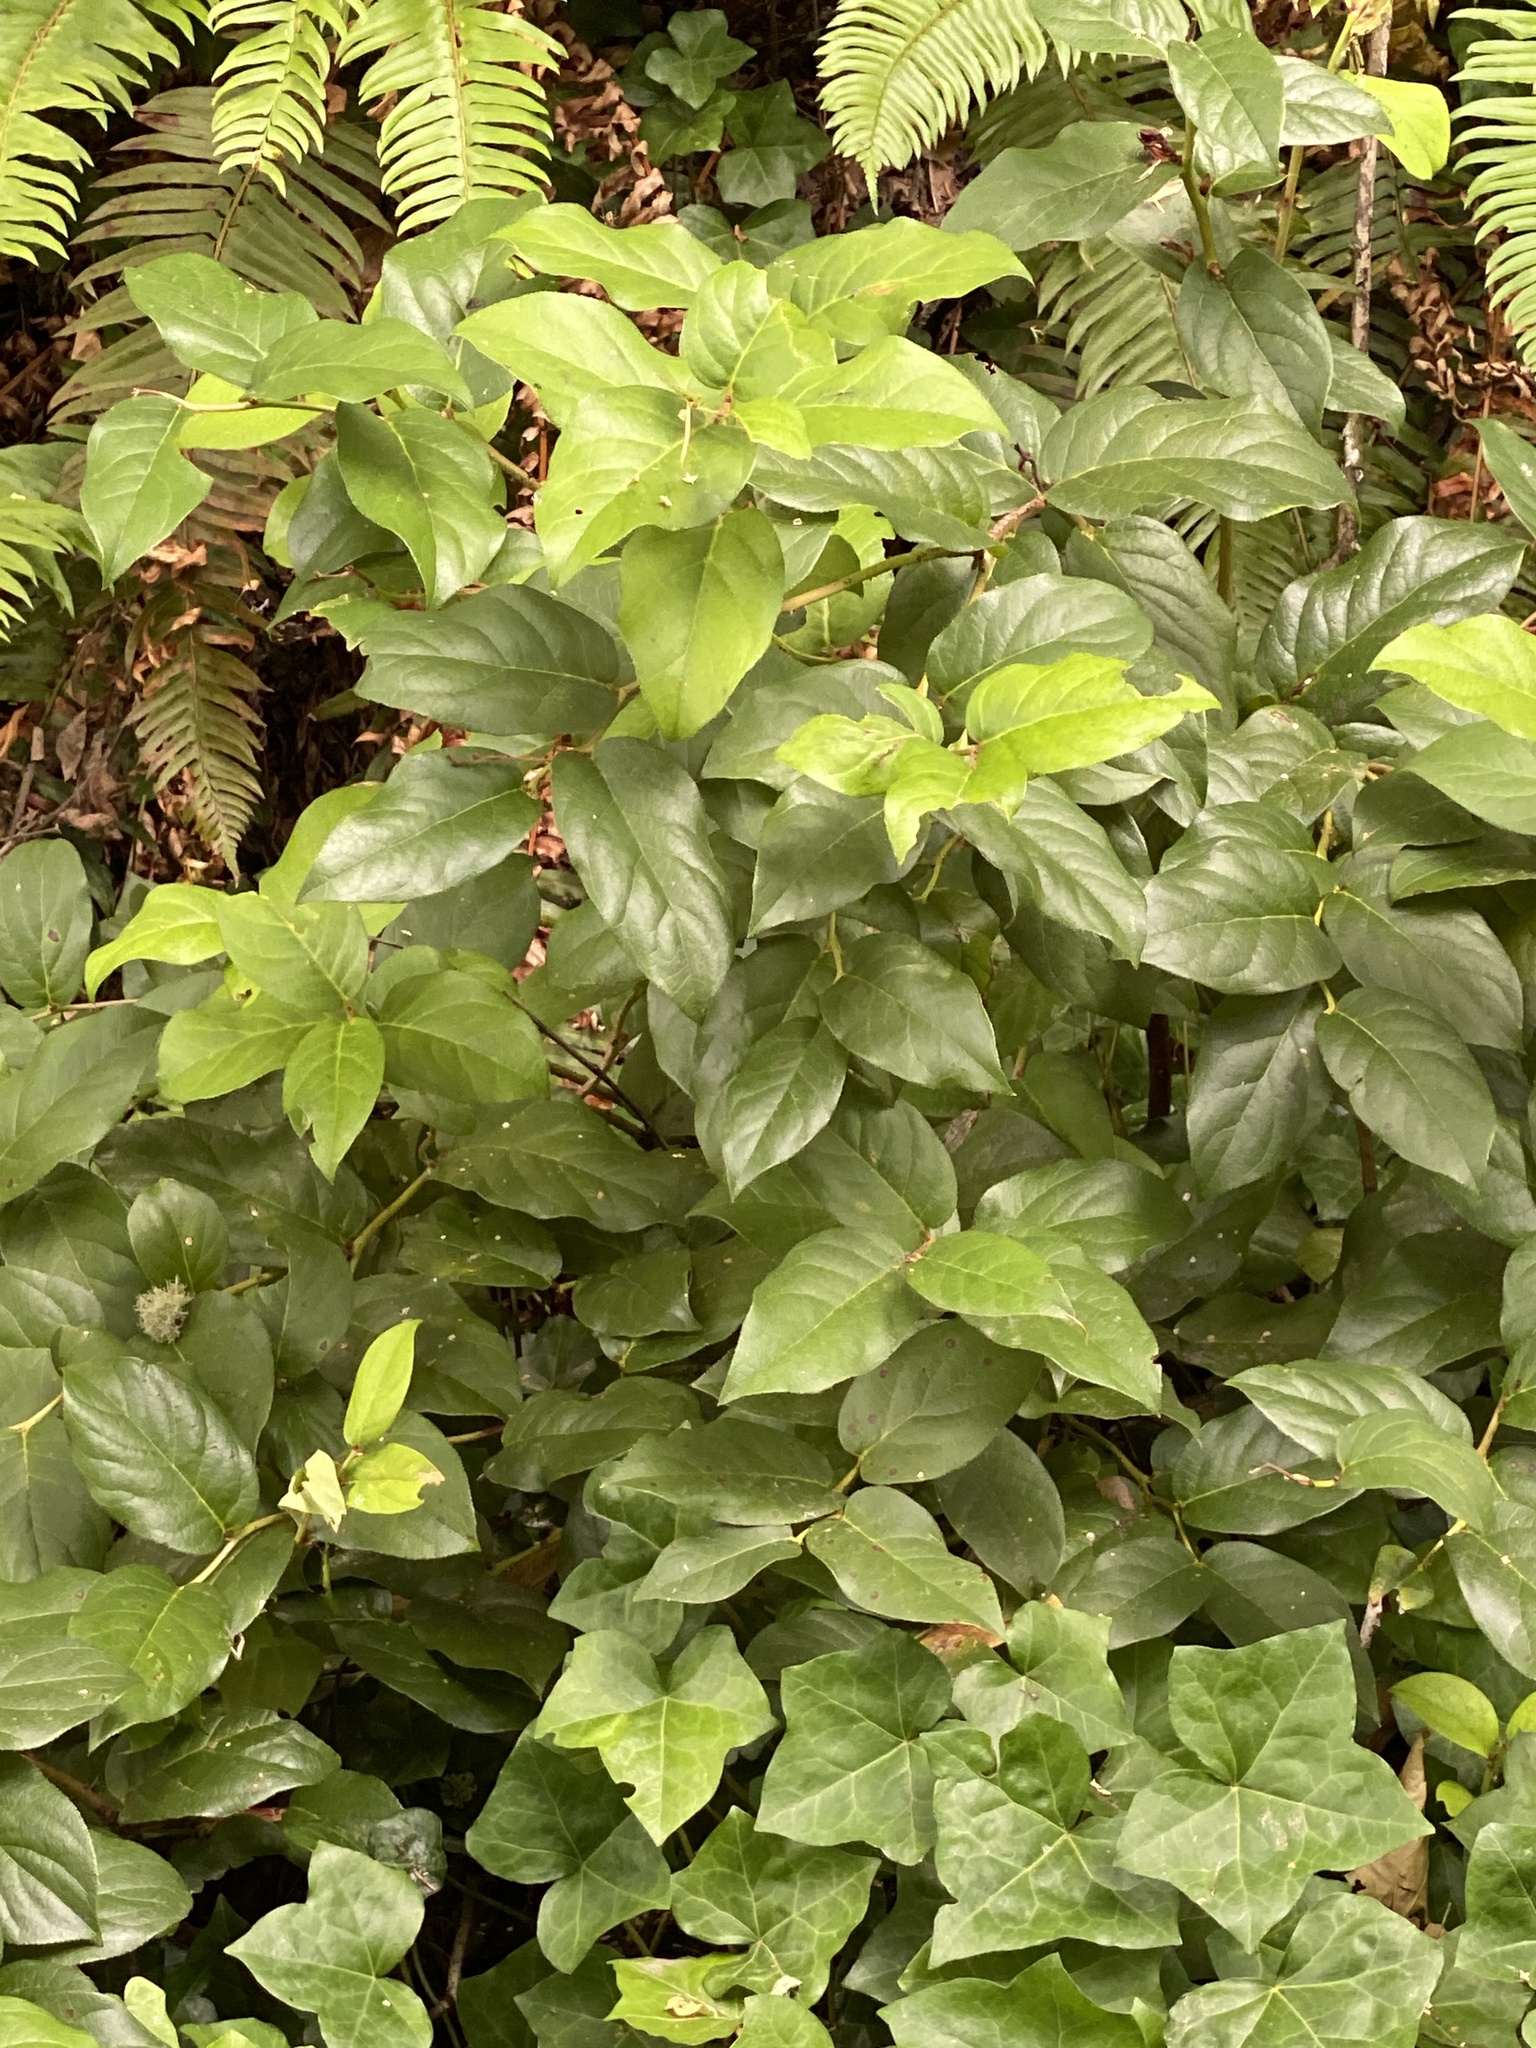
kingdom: Plantae
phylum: Tracheophyta
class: Magnoliopsida
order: Ericales
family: Ericaceae
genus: Gaultheria
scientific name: Gaultheria shallon
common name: Shallon
